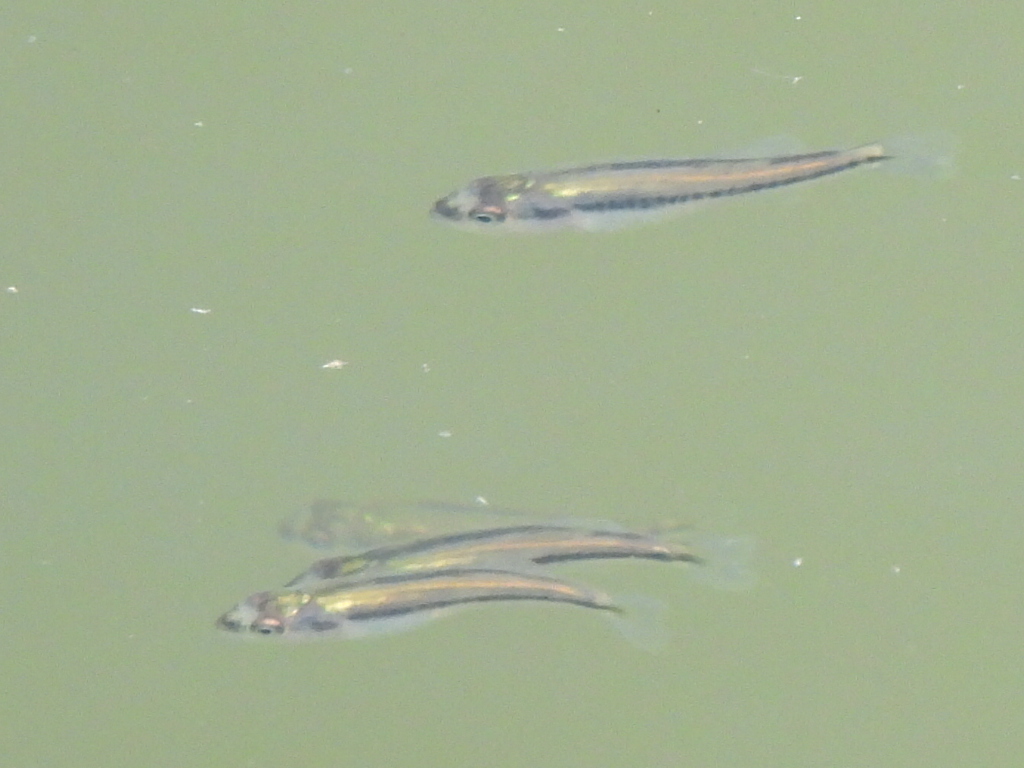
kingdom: Animalia
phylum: Chordata
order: Cyprinodontiformes
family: Fundulidae
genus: Fundulus
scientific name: Fundulus notatus
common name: Blackstripe topminnow
